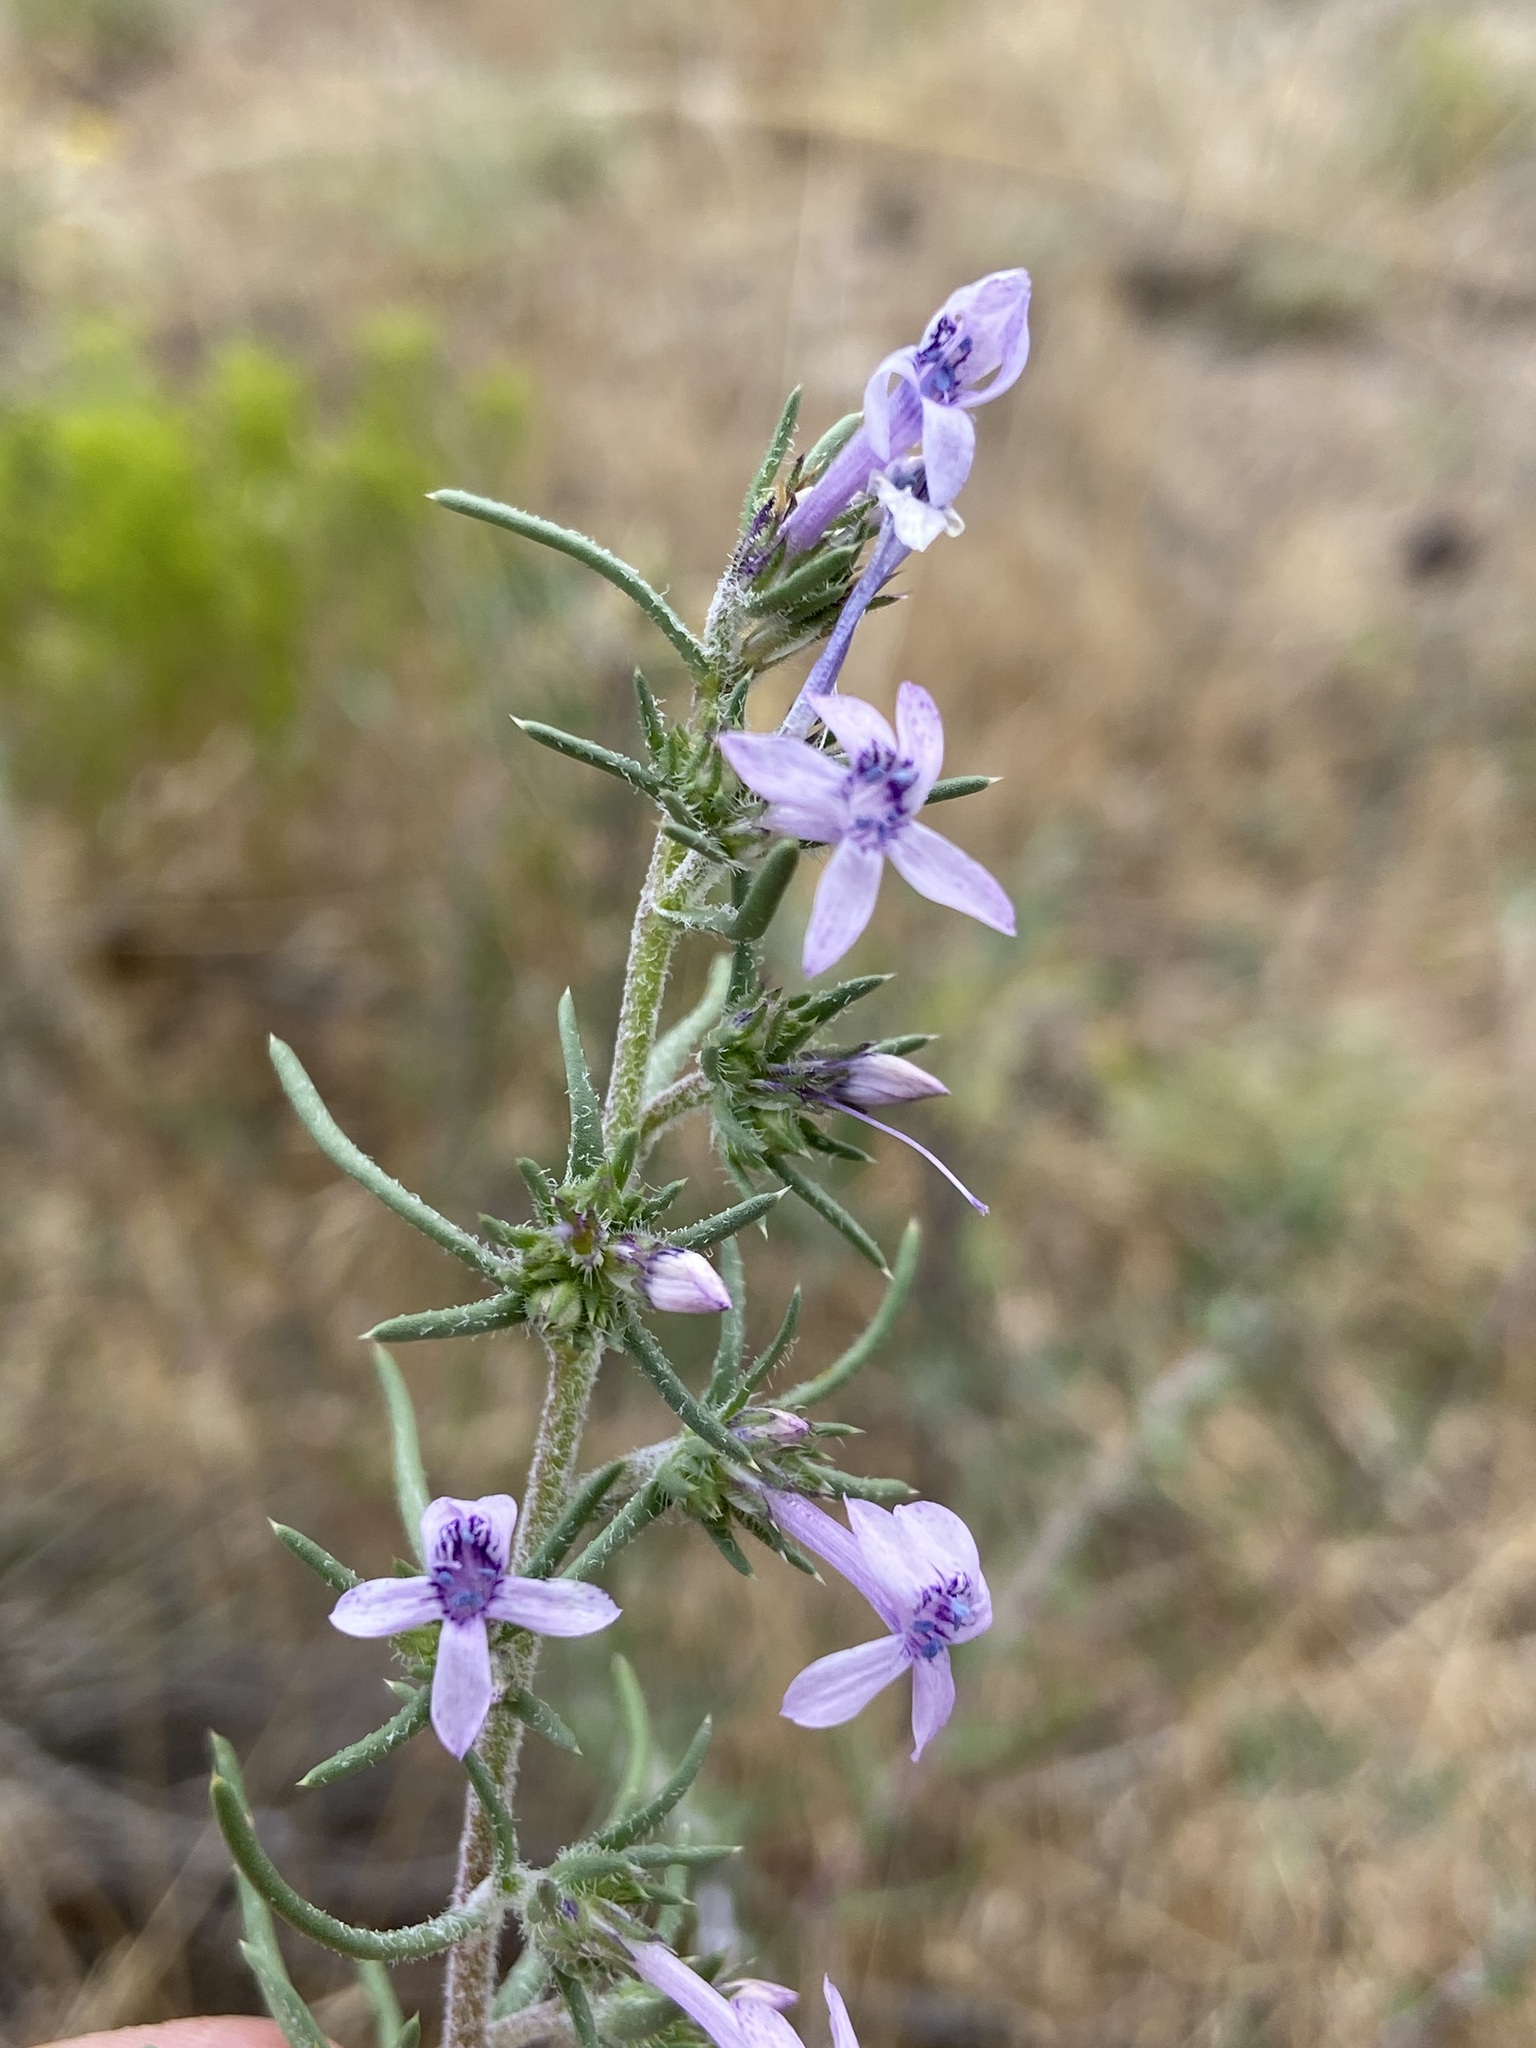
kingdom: Plantae
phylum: Tracheophyta
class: Magnoliopsida
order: Ericales
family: Polemoniaceae
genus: Ipomopsis
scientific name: Ipomopsis multiflora
